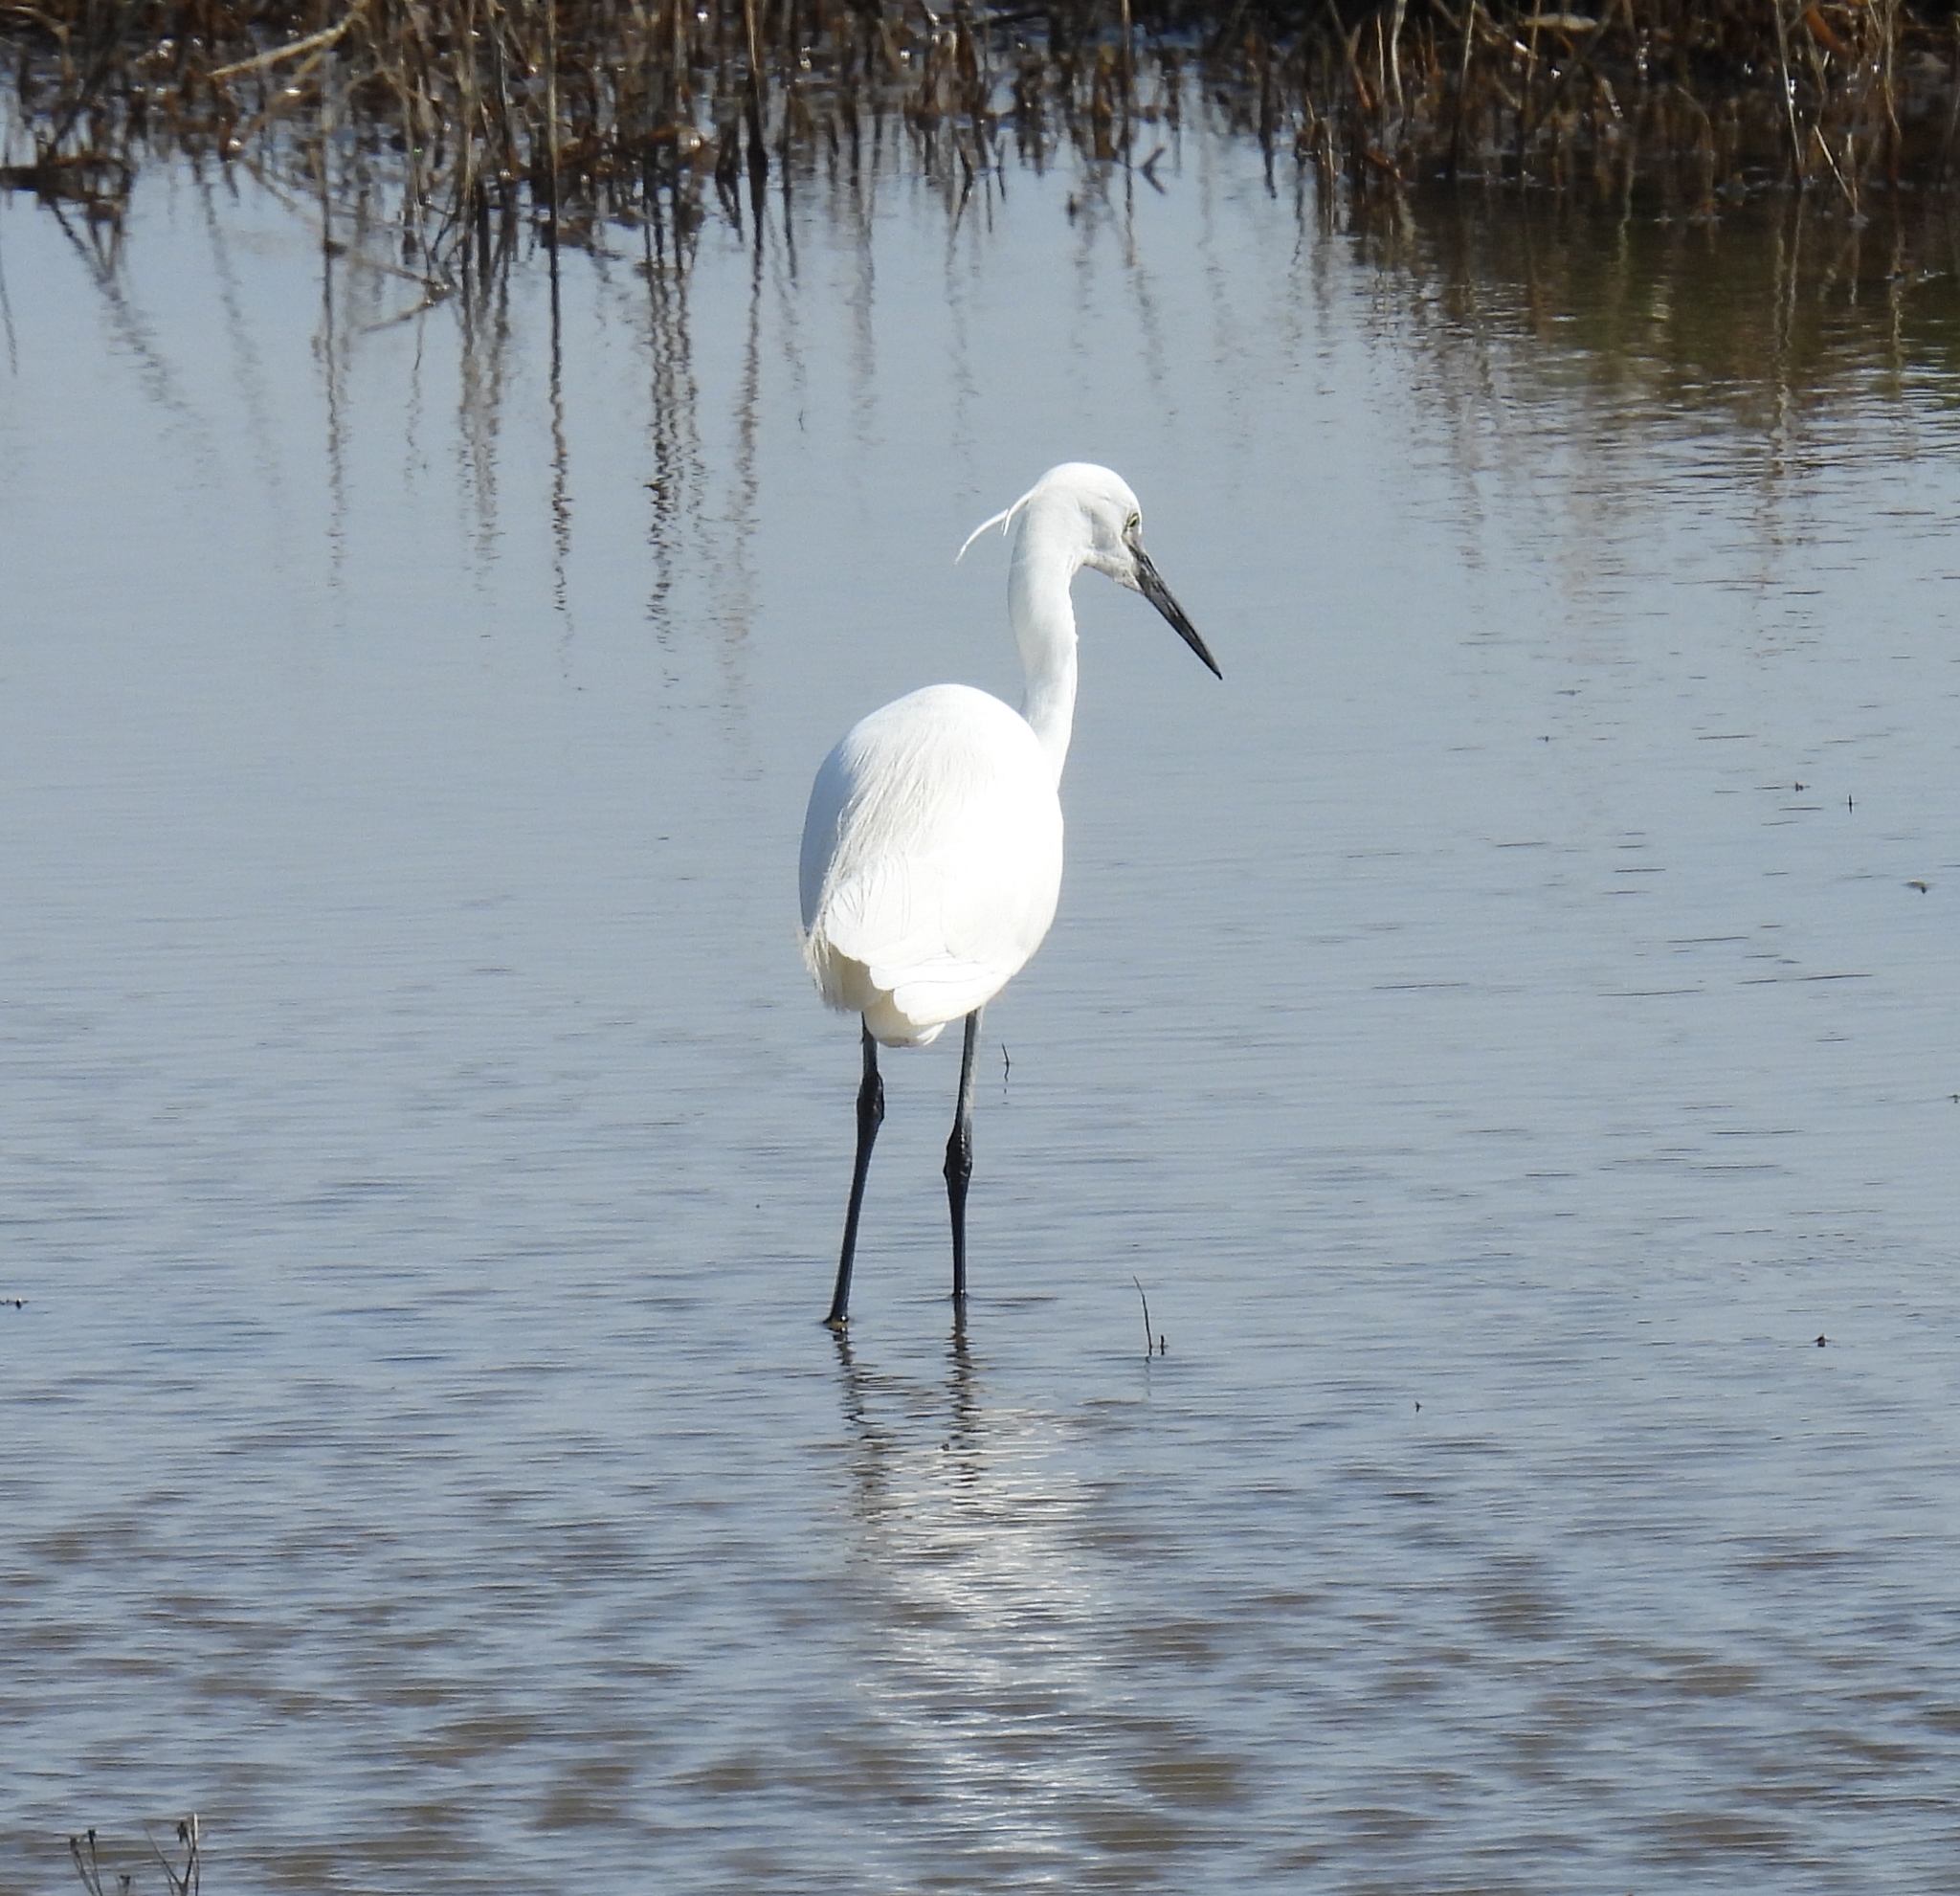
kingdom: Animalia
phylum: Chordata
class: Aves
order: Pelecaniformes
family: Ardeidae
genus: Egretta
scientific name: Egretta garzetta
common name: Little egret
